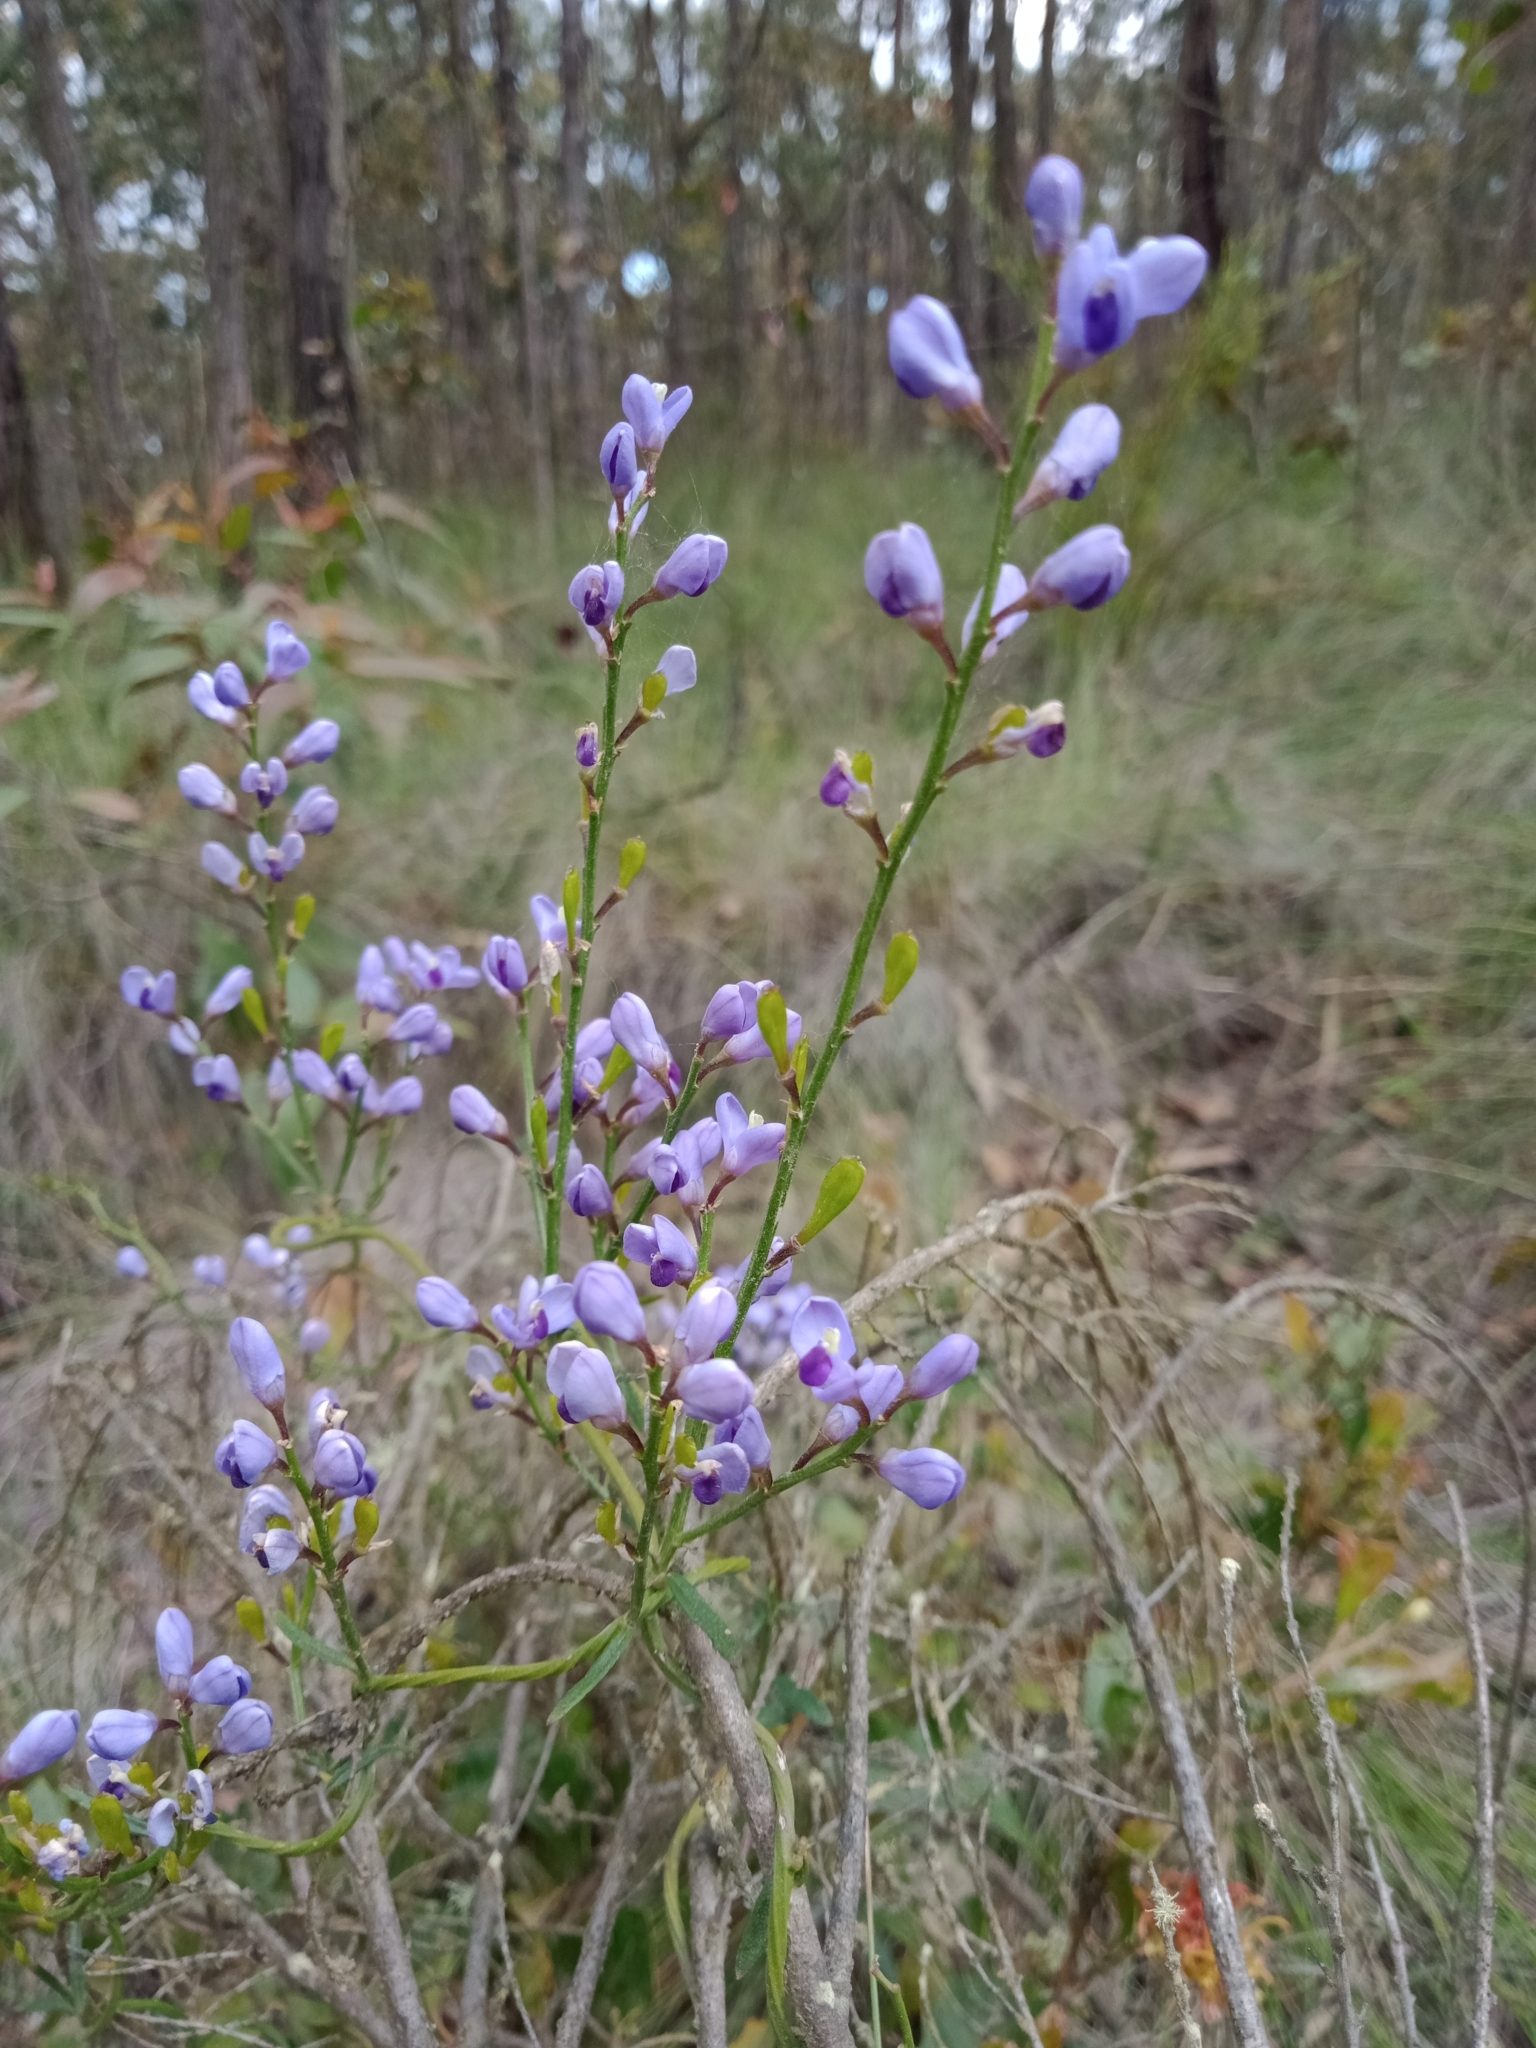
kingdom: Plantae
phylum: Tracheophyta
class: Magnoliopsida
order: Fabales
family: Polygalaceae
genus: Comesperma
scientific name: Comesperma volubile
